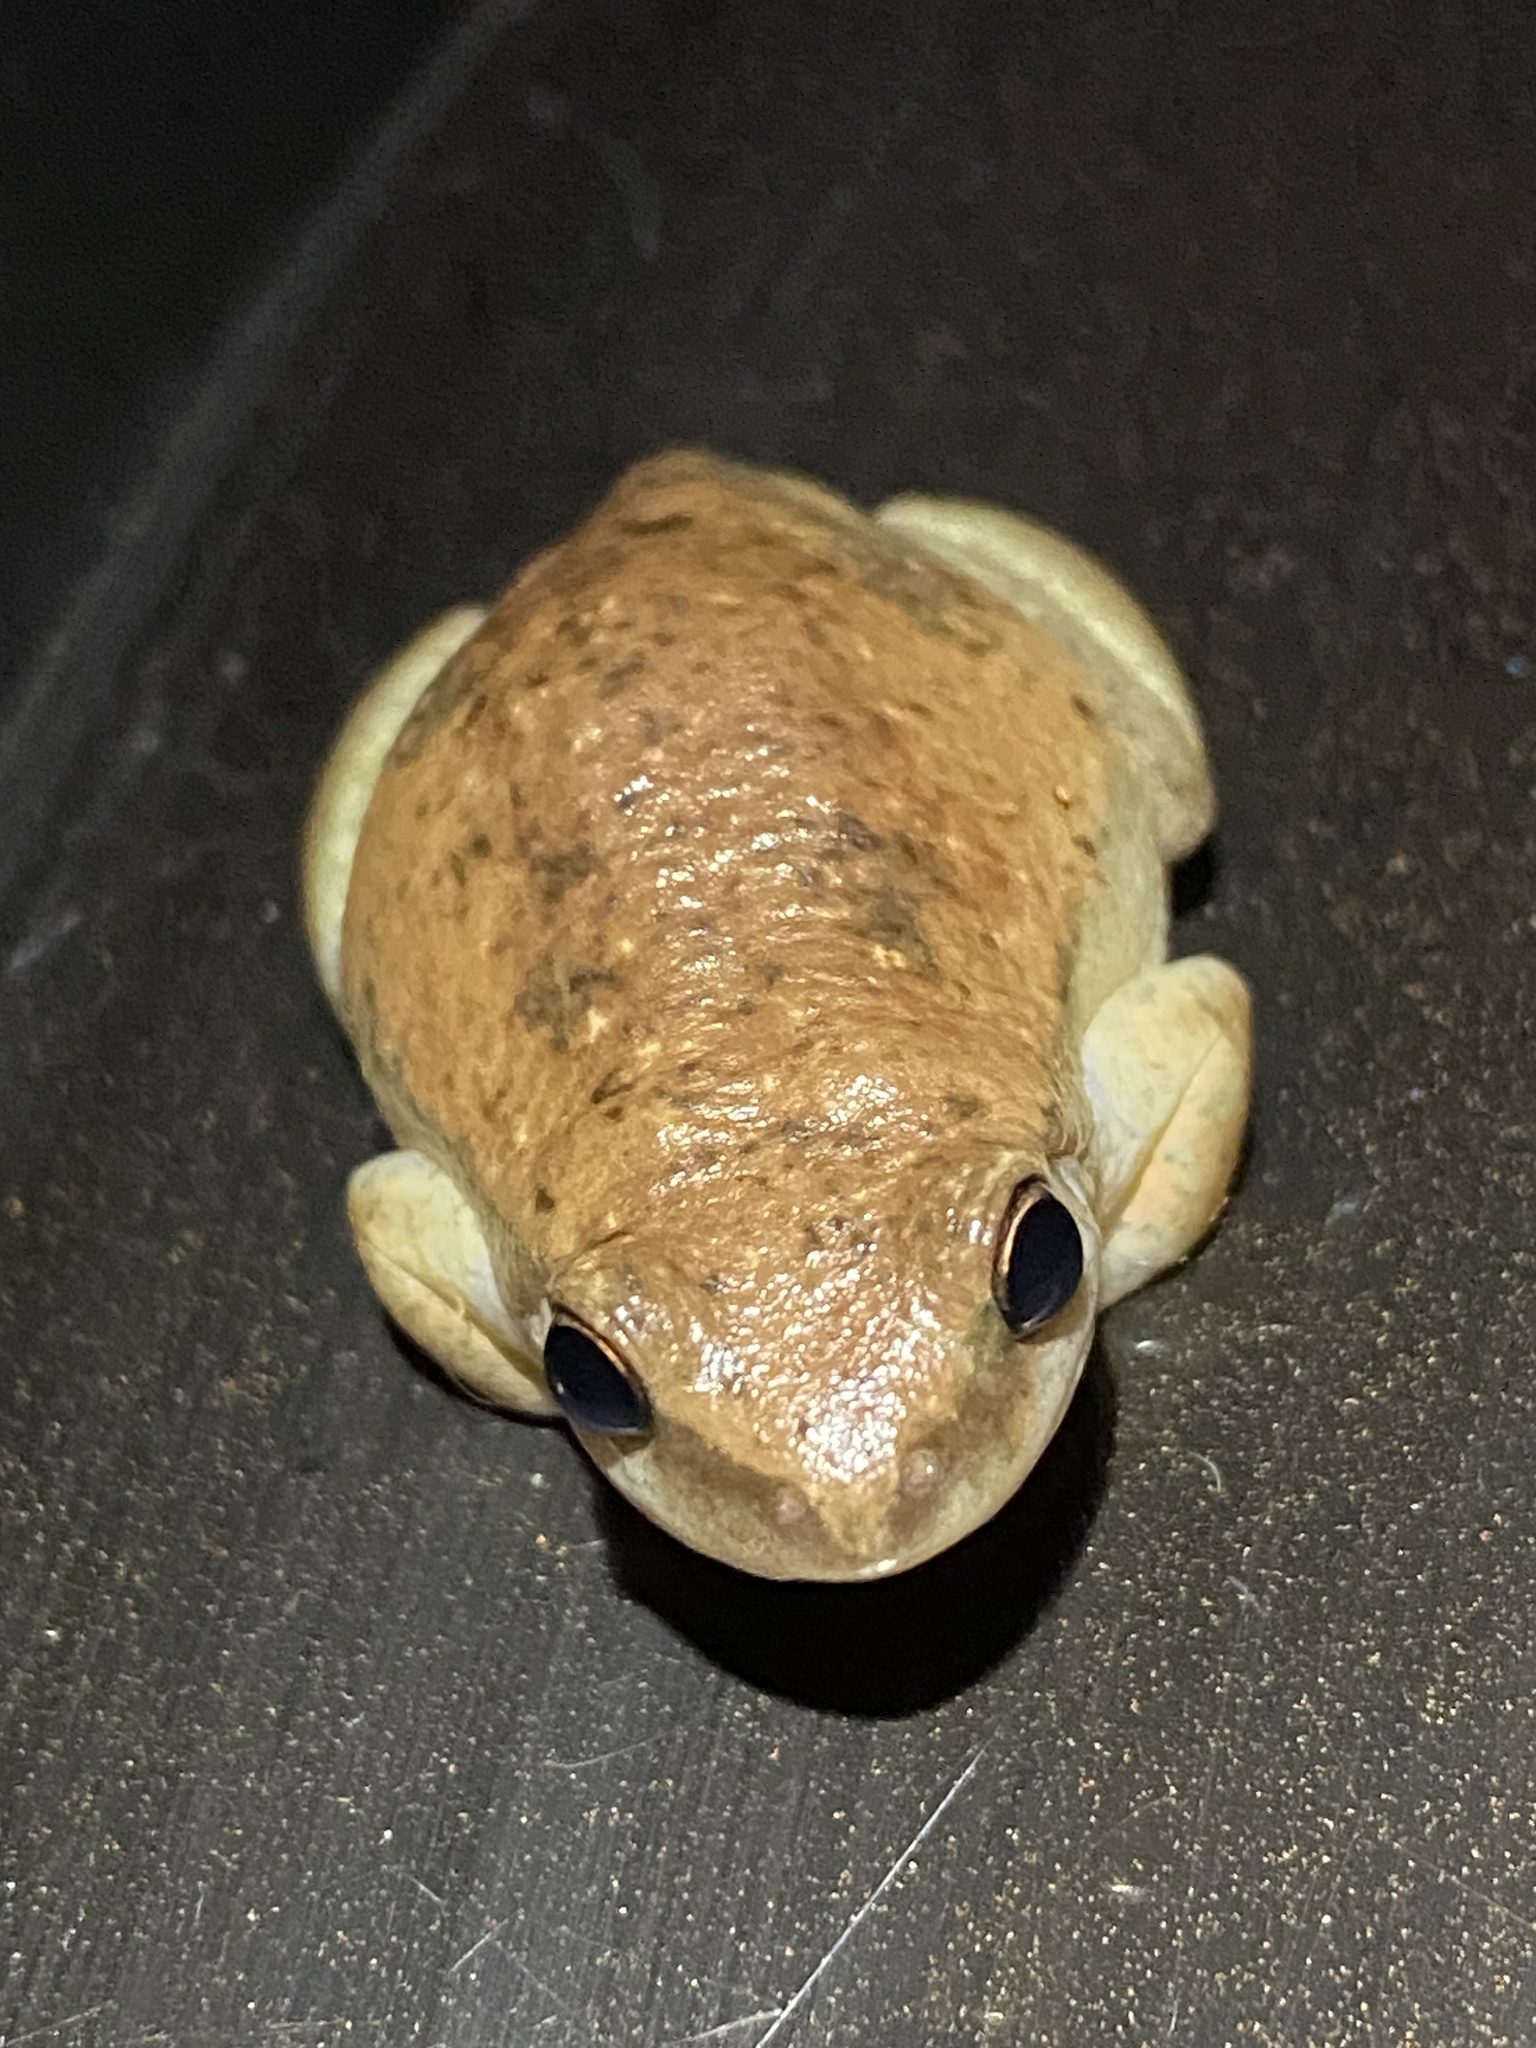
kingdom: Animalia
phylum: Chordata
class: Amphibia
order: Anura
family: Pelodryadidae
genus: Litoria
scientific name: Litoria rubella
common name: Desert tree frog
